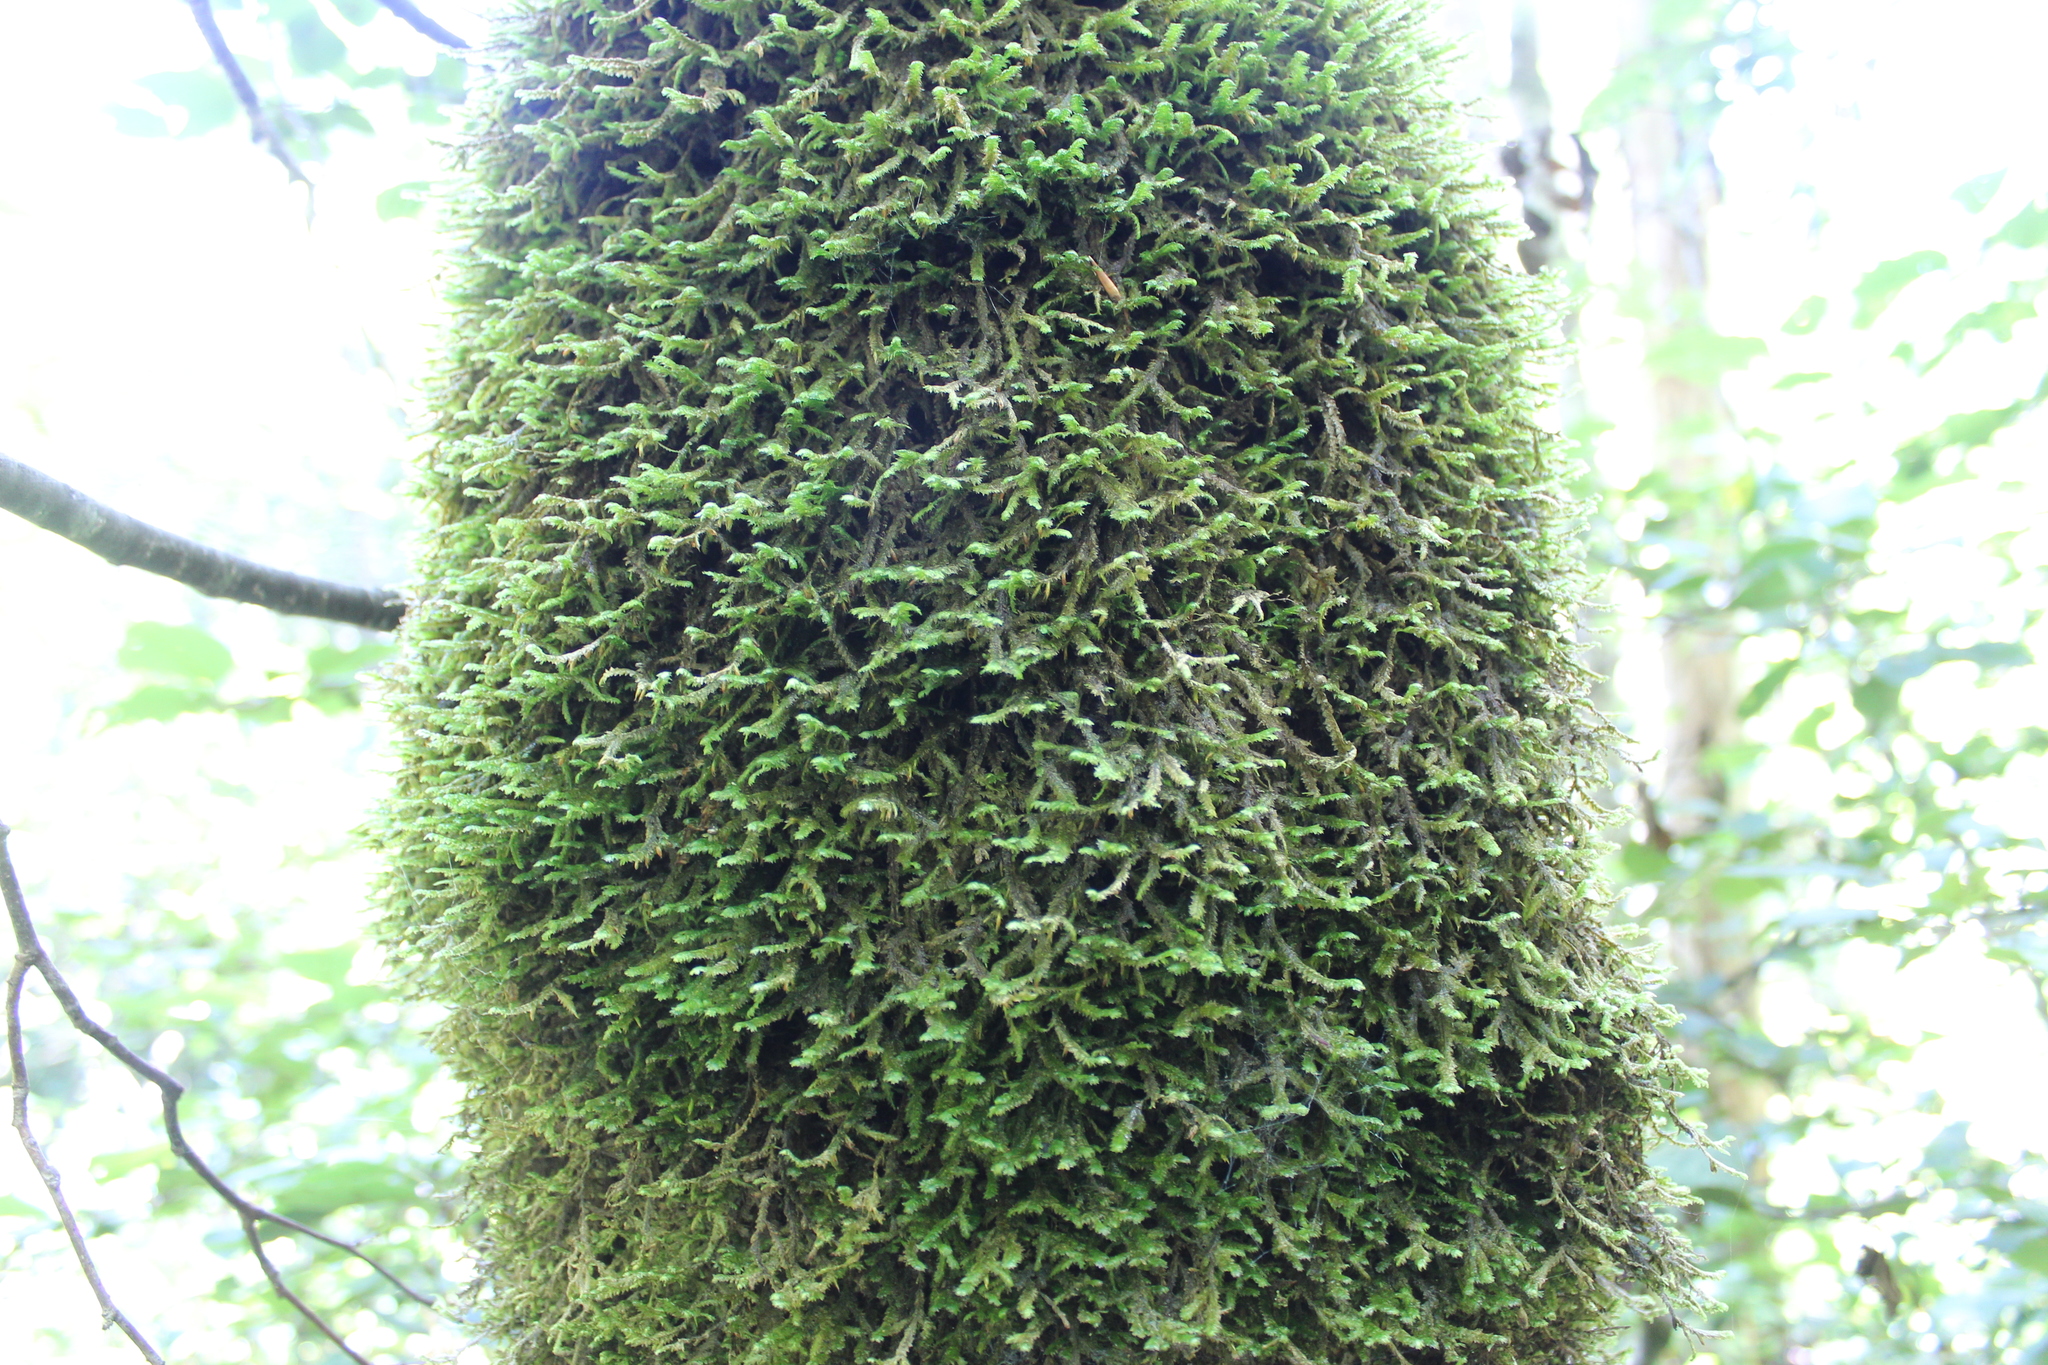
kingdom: Plantae
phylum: Bryophyta
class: Bryopsida
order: Hypnales
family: Neckeraceae
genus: Neckera
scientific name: Neckera pennata
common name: Feathery neckera
